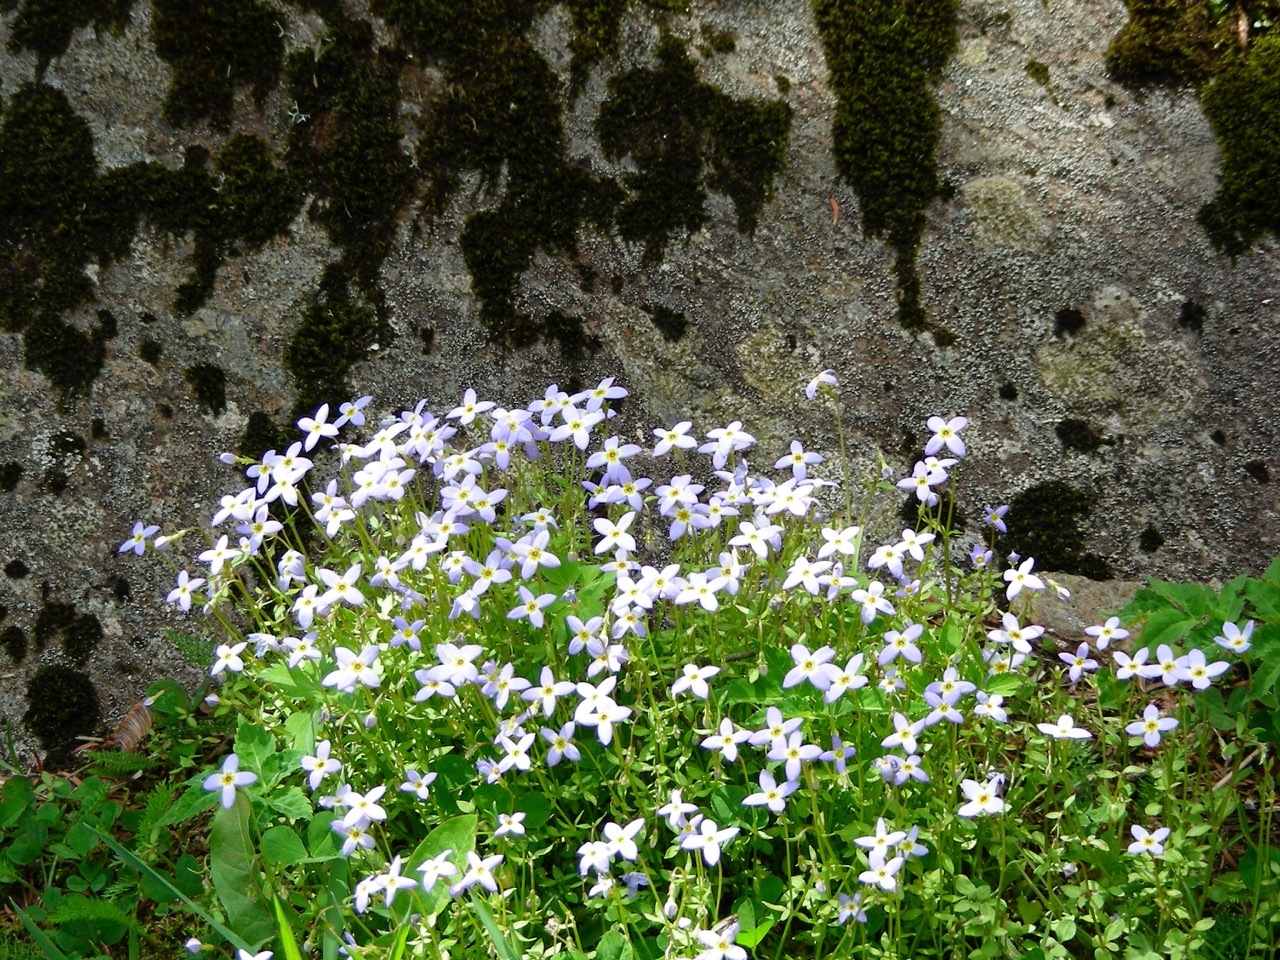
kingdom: Plantae
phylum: Tracheophyta
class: Magnoliopsida
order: Gentianales
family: Rubiaceae
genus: Houstonia
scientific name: Houstonia caerulea
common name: Bluets
